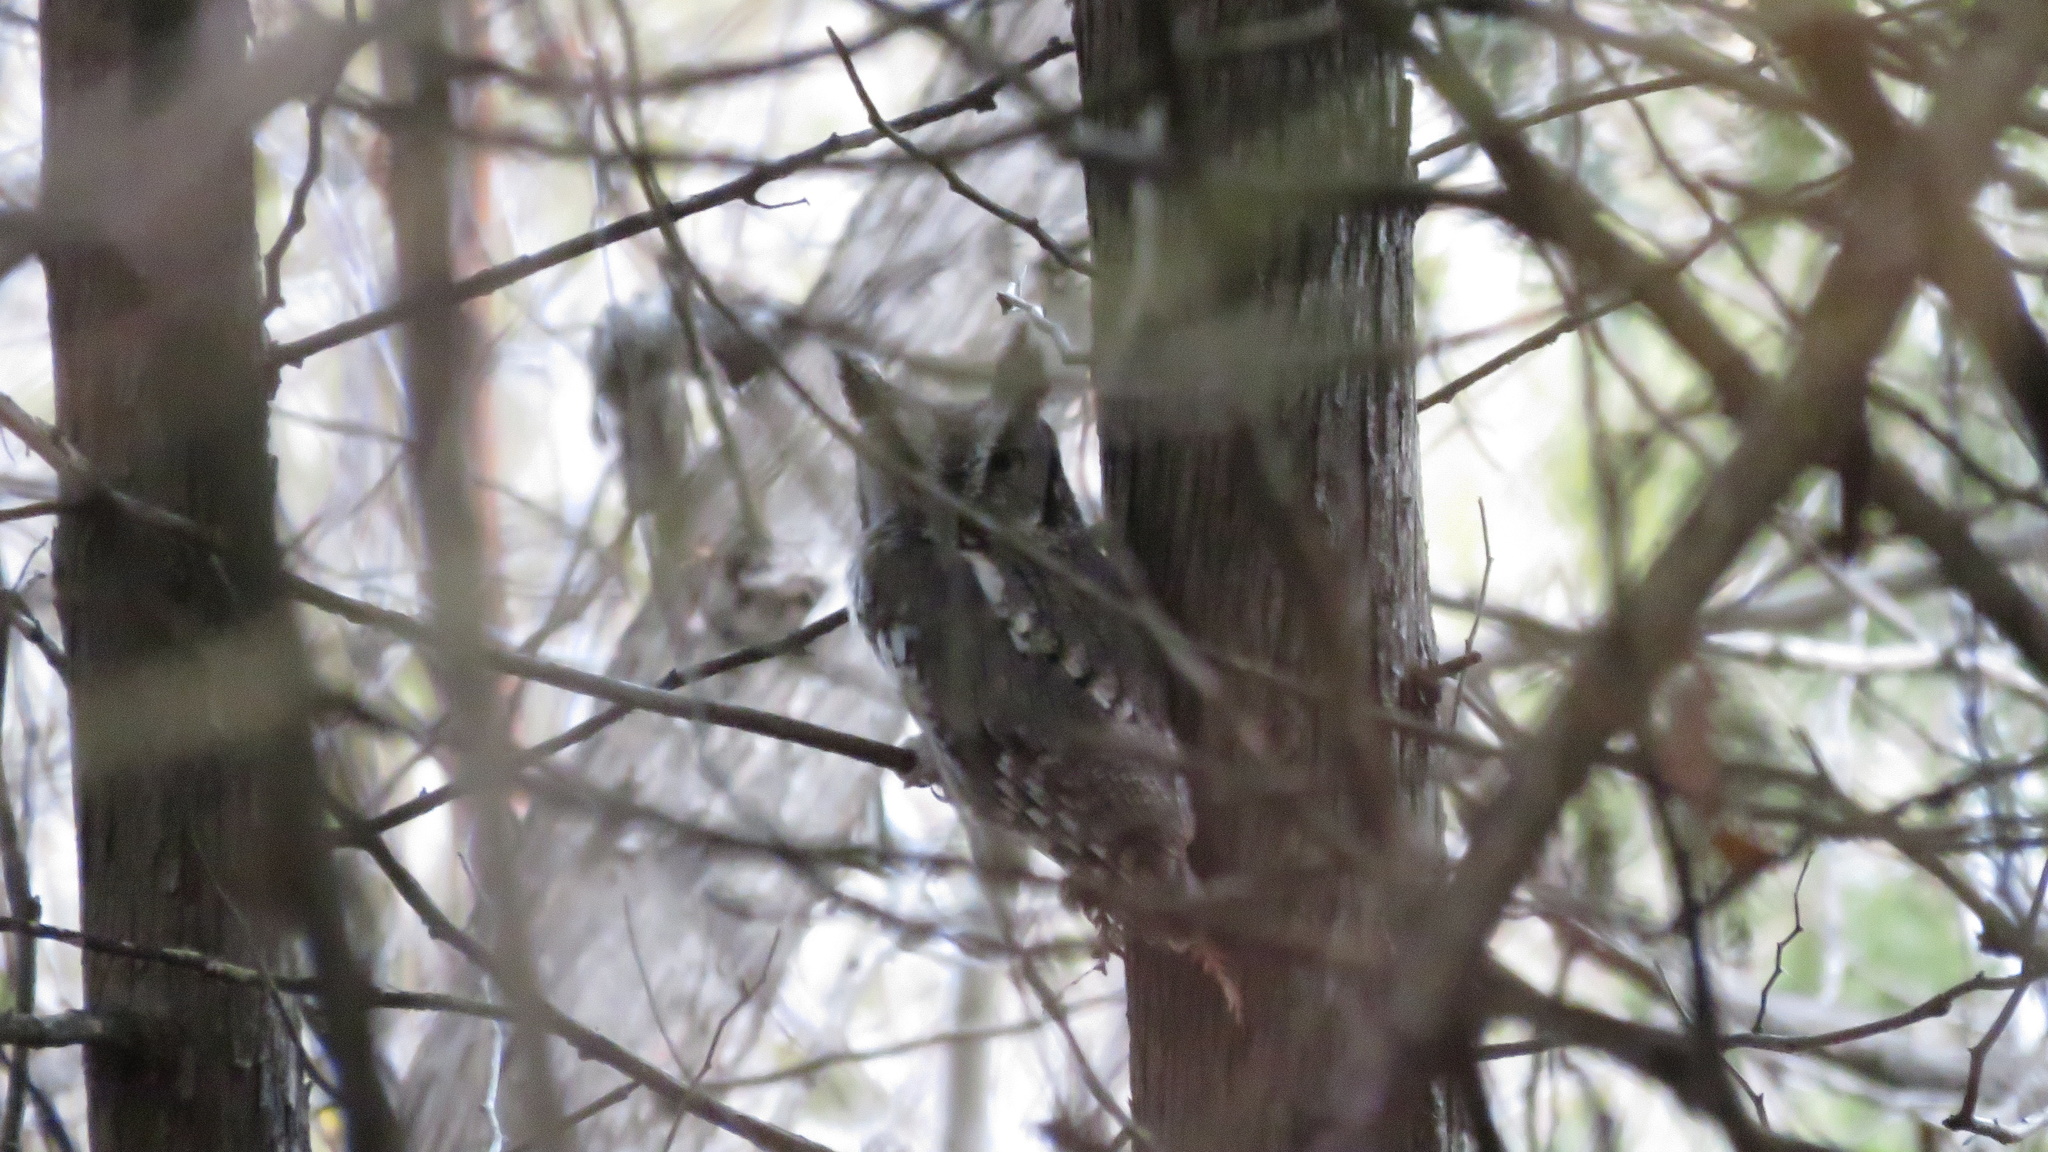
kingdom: Animalia
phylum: Chordata
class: Aves
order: Strigiformes
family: Strigidae
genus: Megascops
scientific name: Megascops asio
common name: Eastern screech-owl
